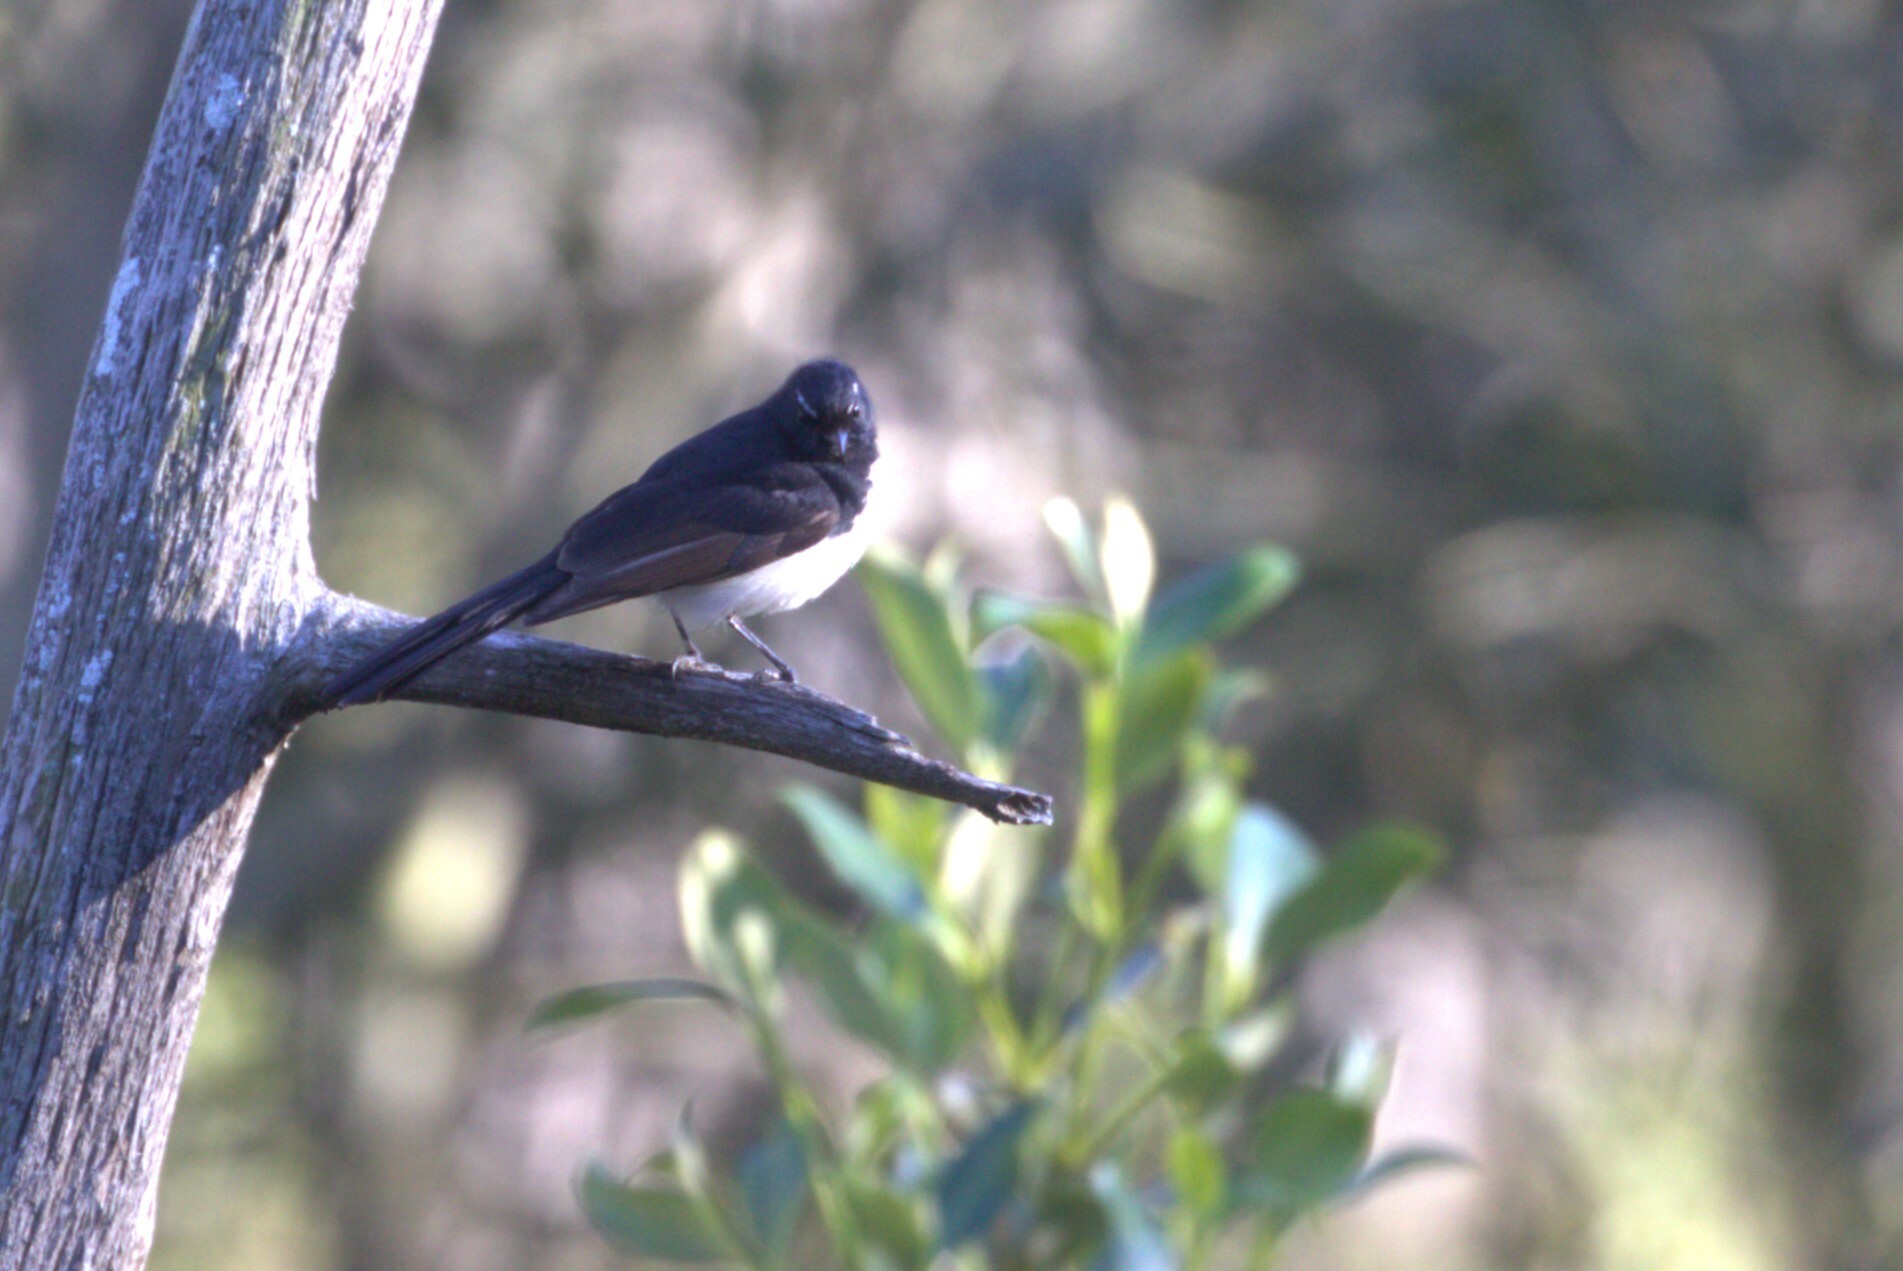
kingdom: Animalia
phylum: Chordata
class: Aves
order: Passeriformes
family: Rhipiduridae
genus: Rhipidura
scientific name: Rhipidura leucophrys
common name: Willie wagtail
